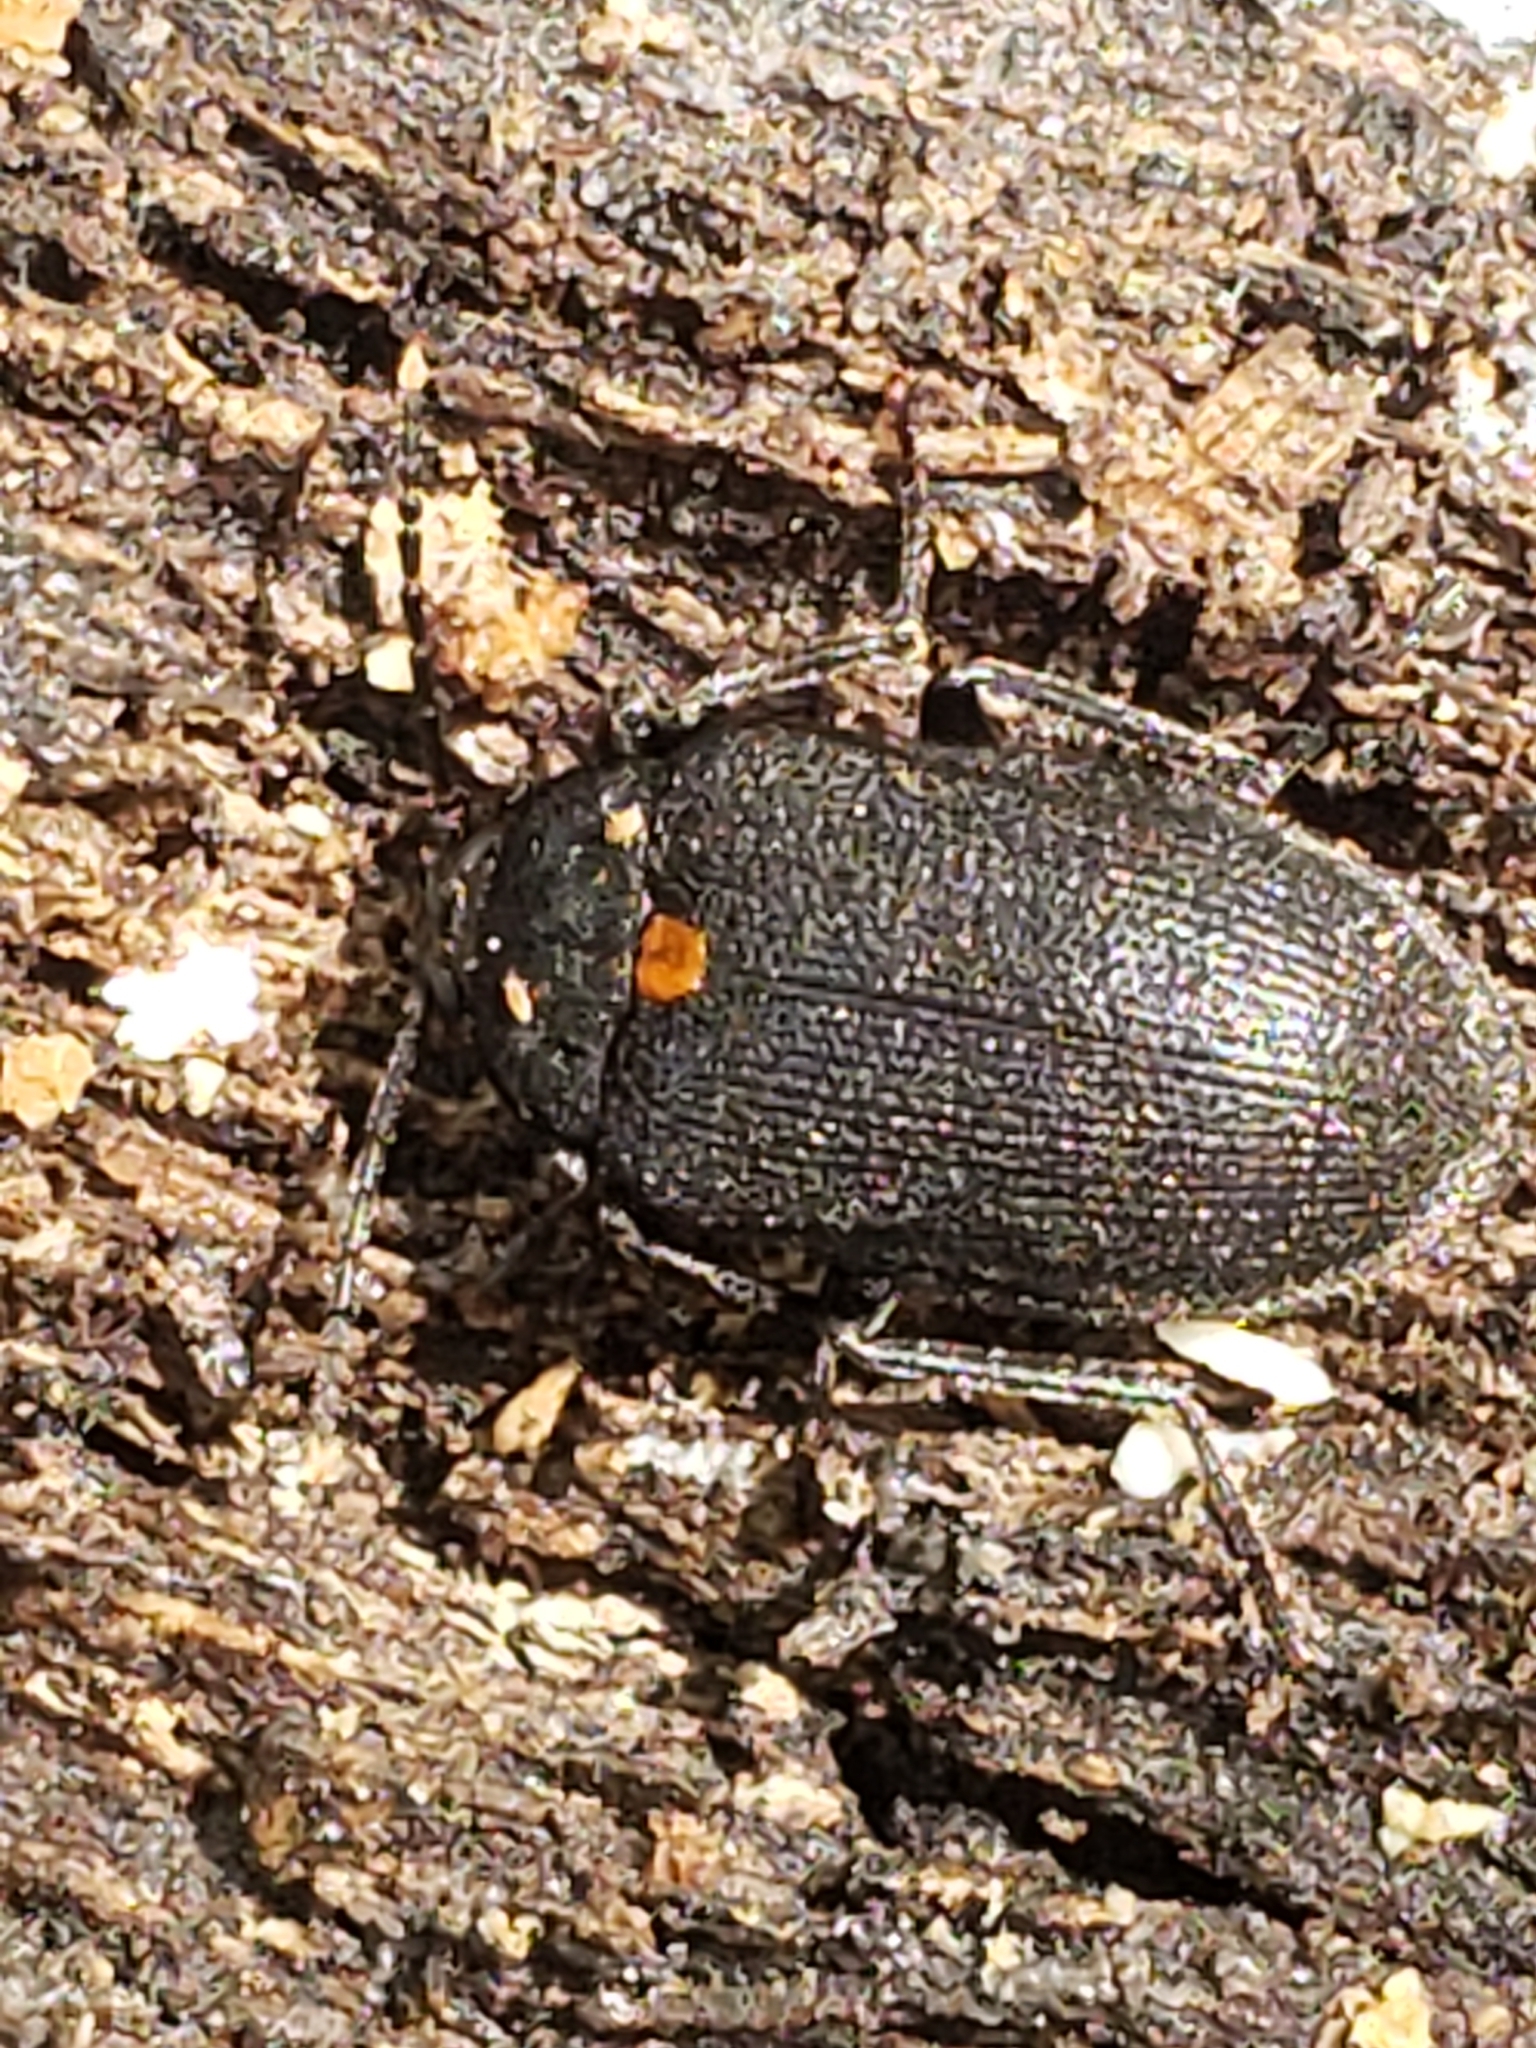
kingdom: Animalia
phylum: Arthropoda
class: Insecta
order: Coleoptera
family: Tetratomidae
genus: Penthe
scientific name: Penthe obliquata
